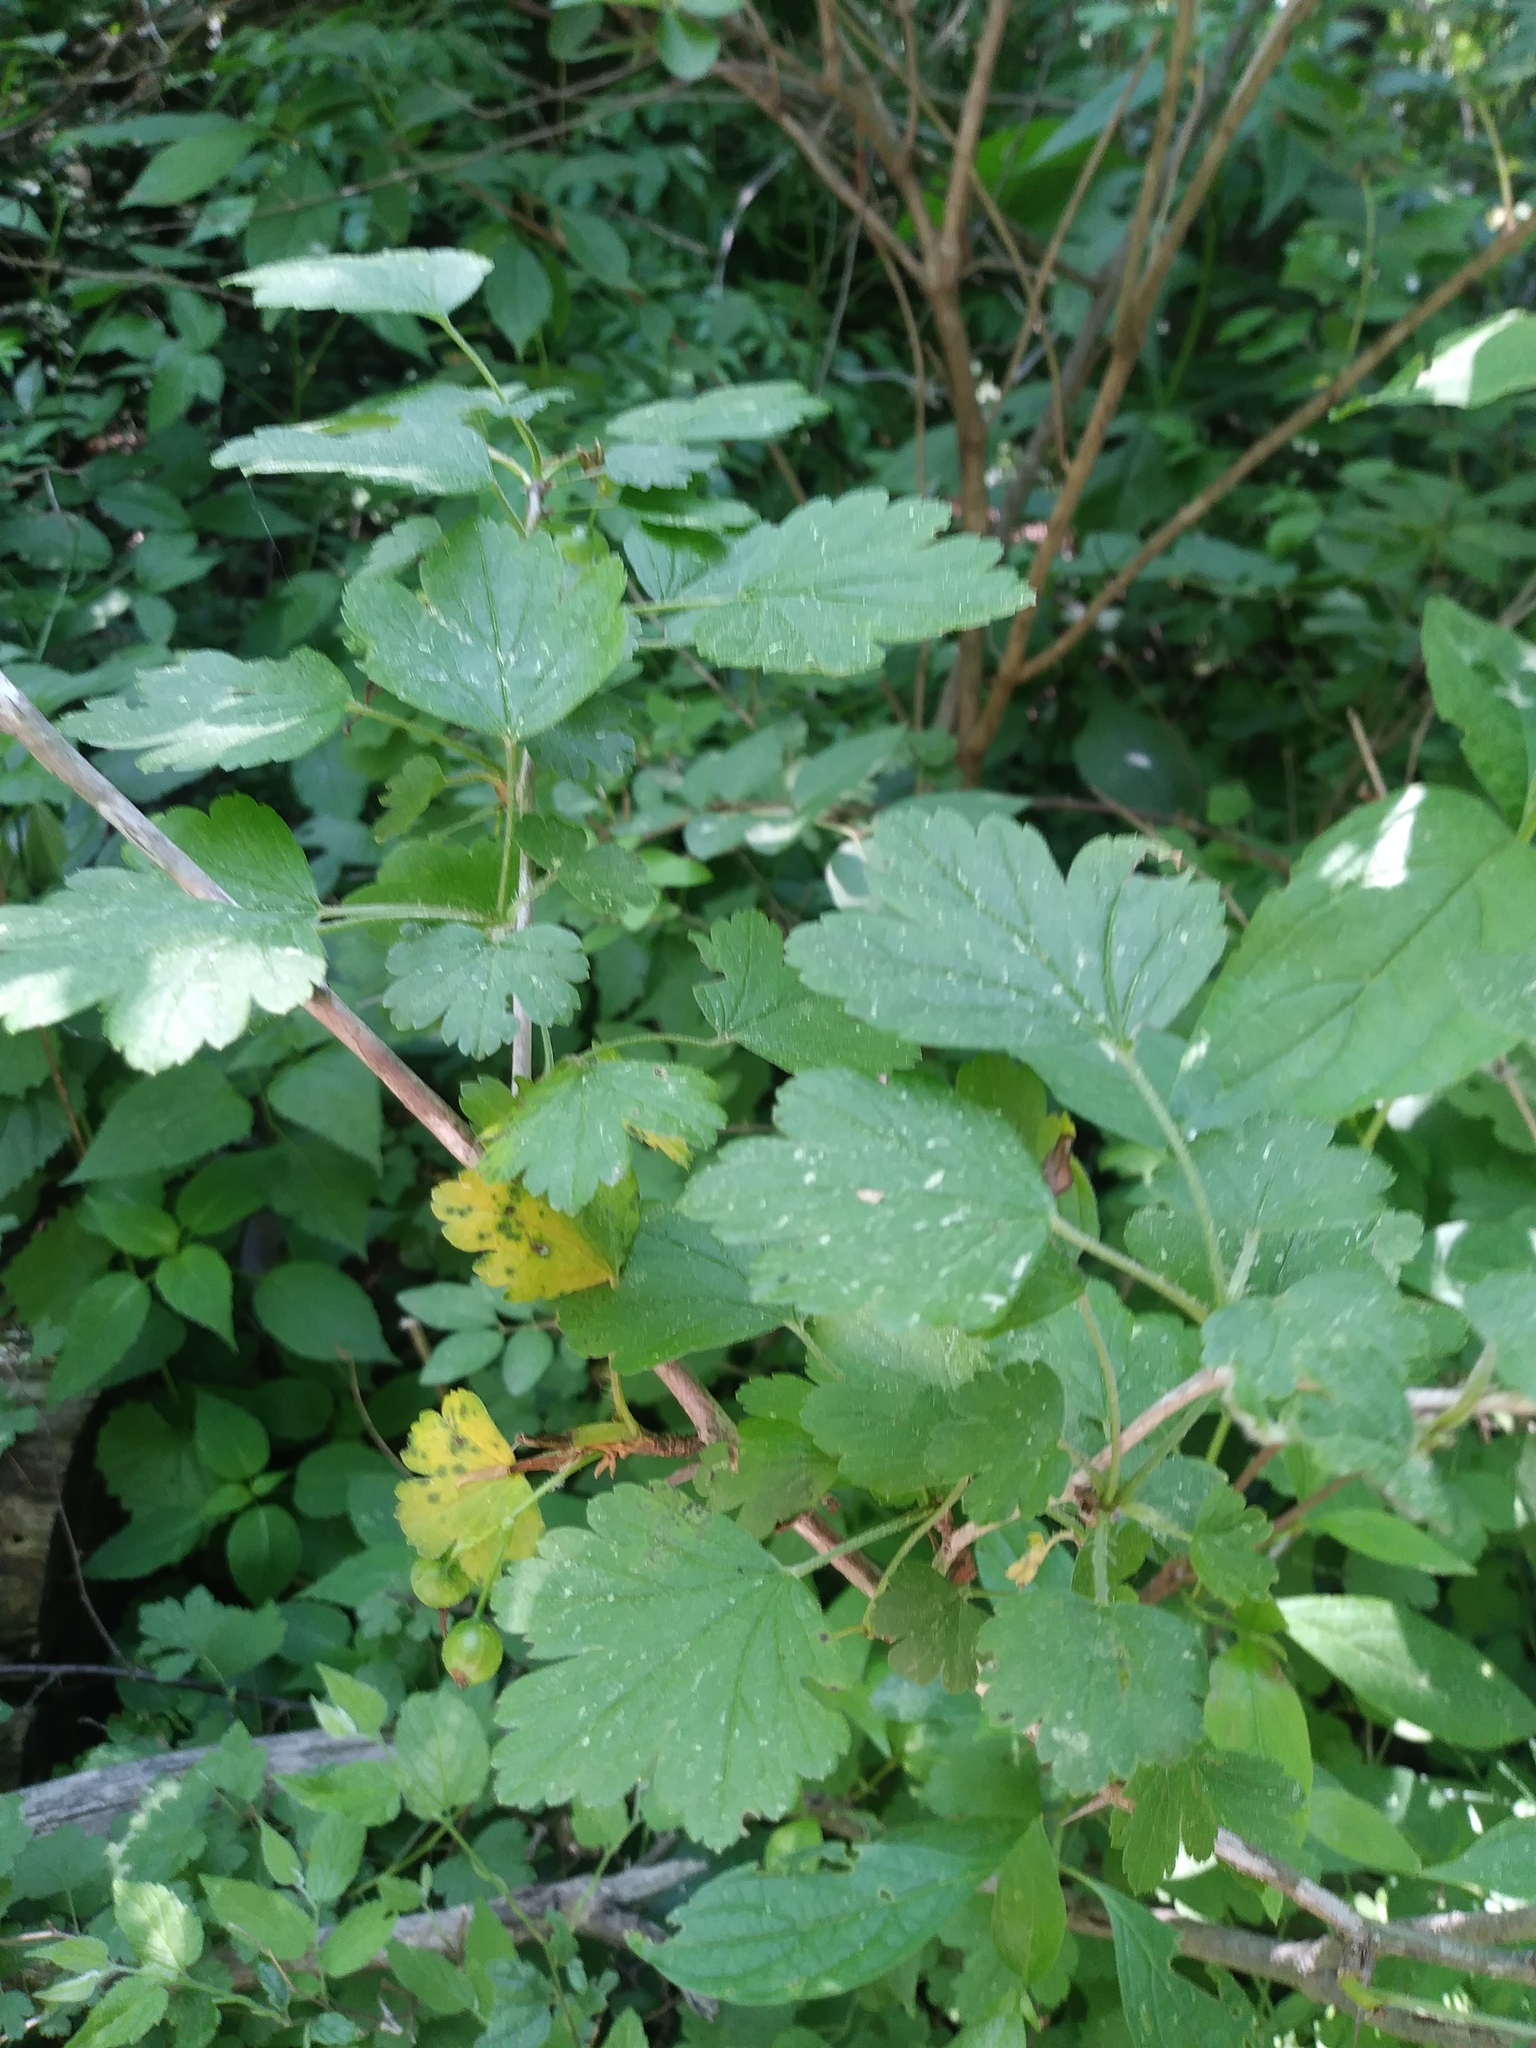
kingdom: Plantae
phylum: Tracheophyta
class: Magnoliopsida
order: Saxifragales
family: Grossulariaceae
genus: Ribes
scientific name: Ribes missouriense
